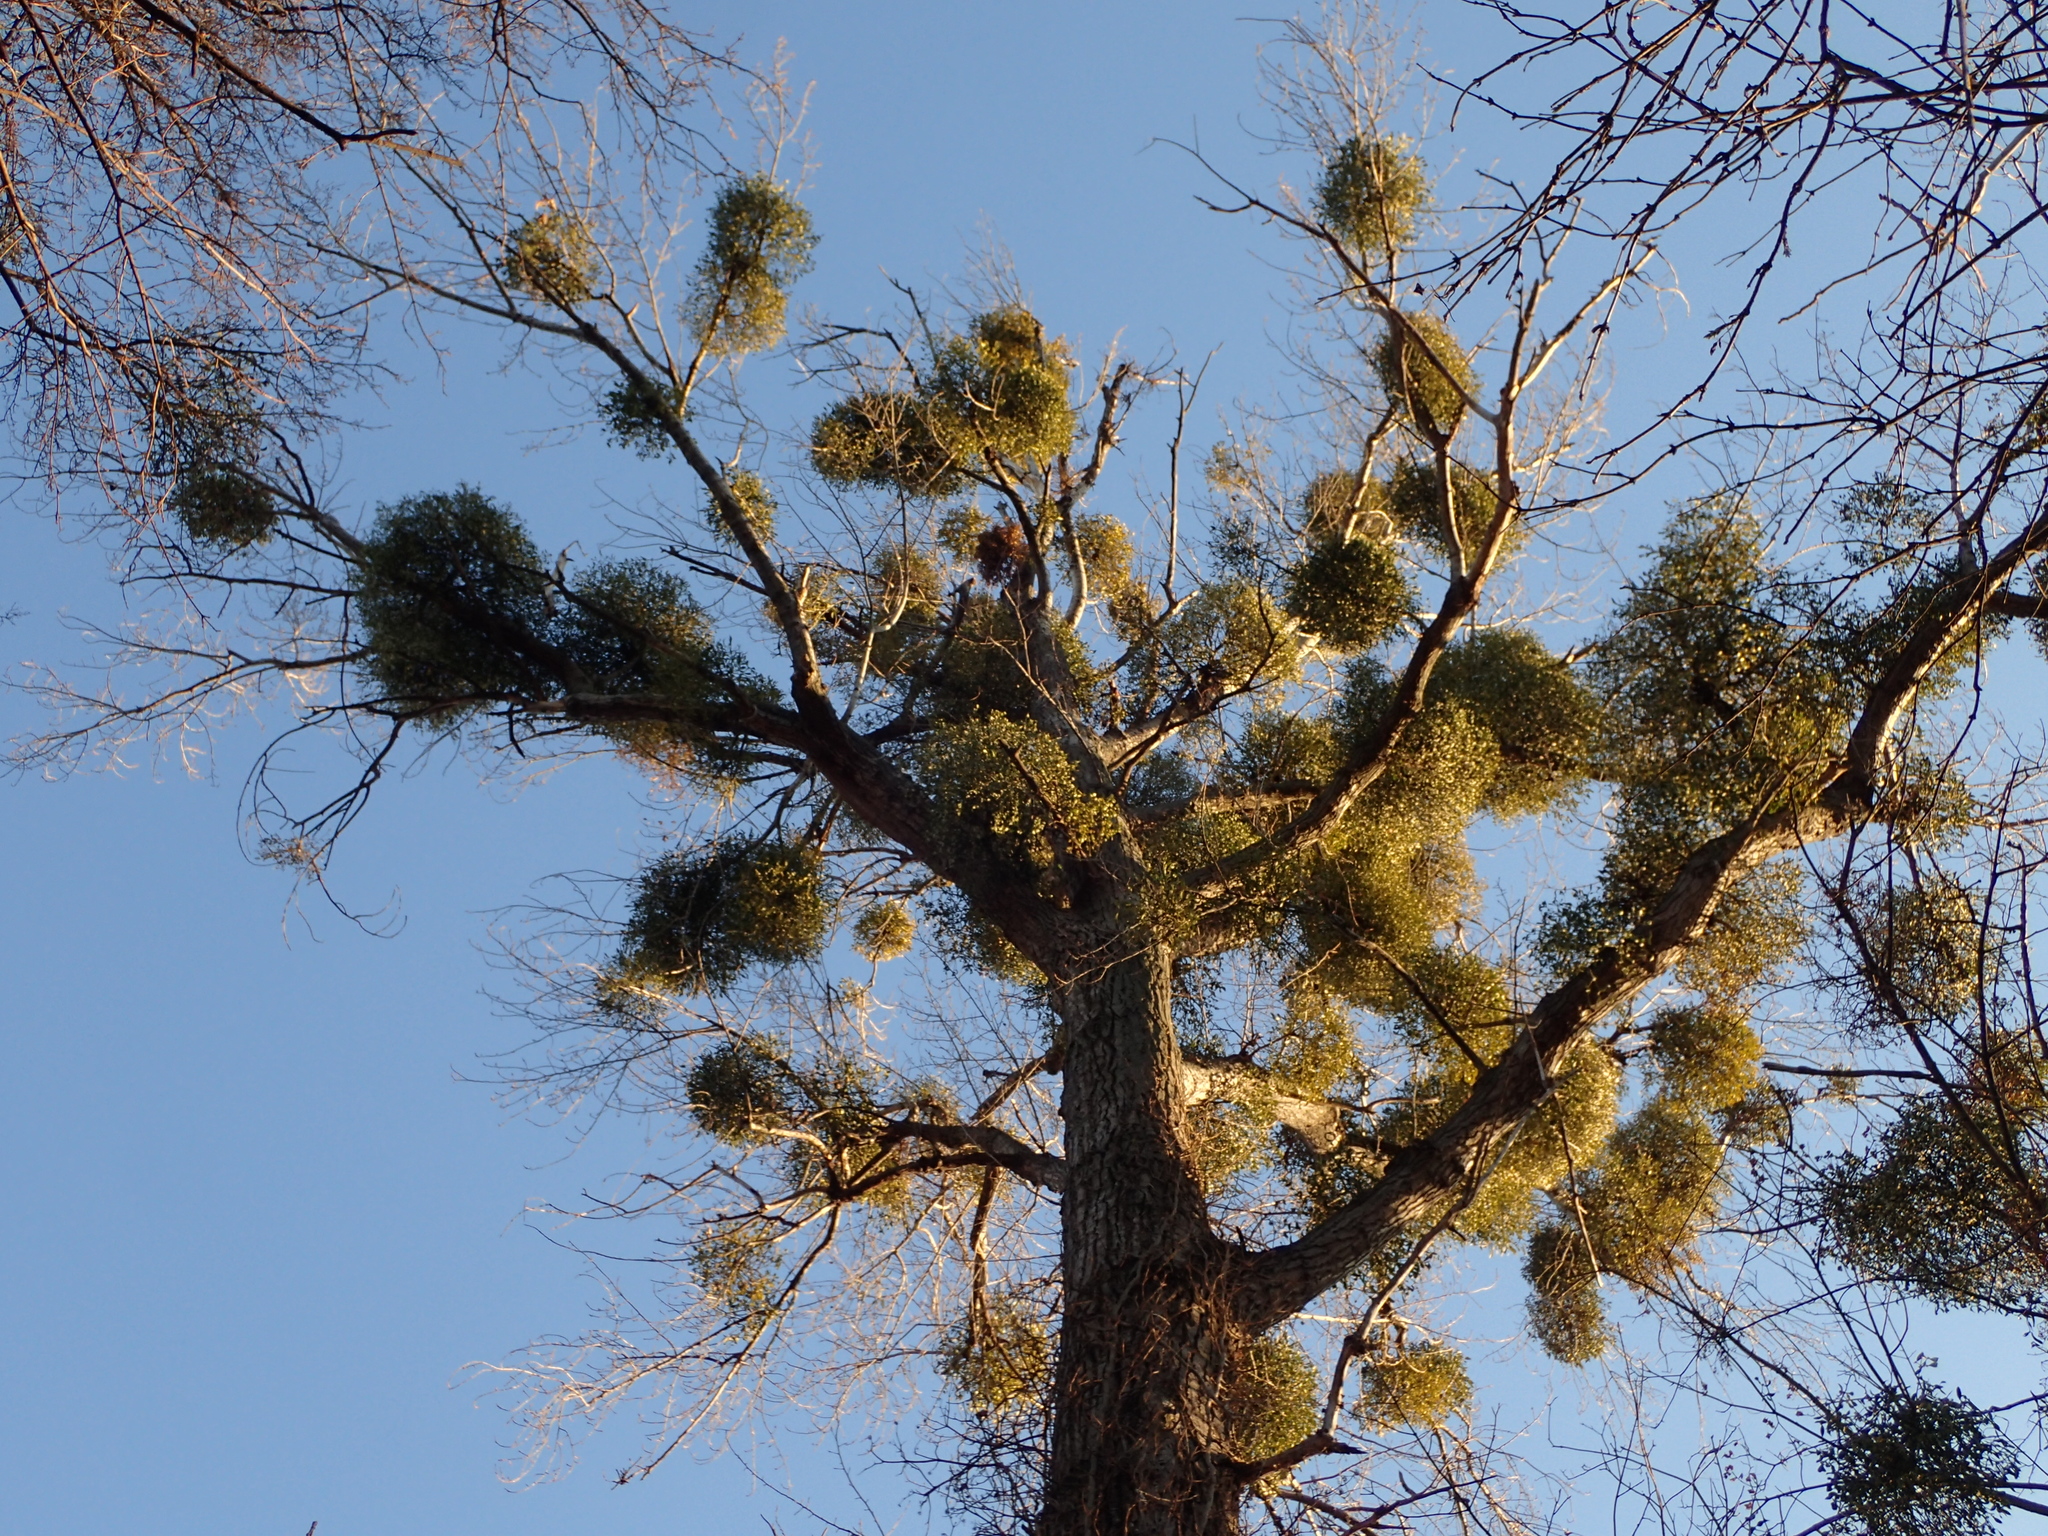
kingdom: Plantae
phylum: Tracheophyta
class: Magnoliopsida
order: Santalales
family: Viscaceae
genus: Viscum
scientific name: Viscum album
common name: Mistletoe
